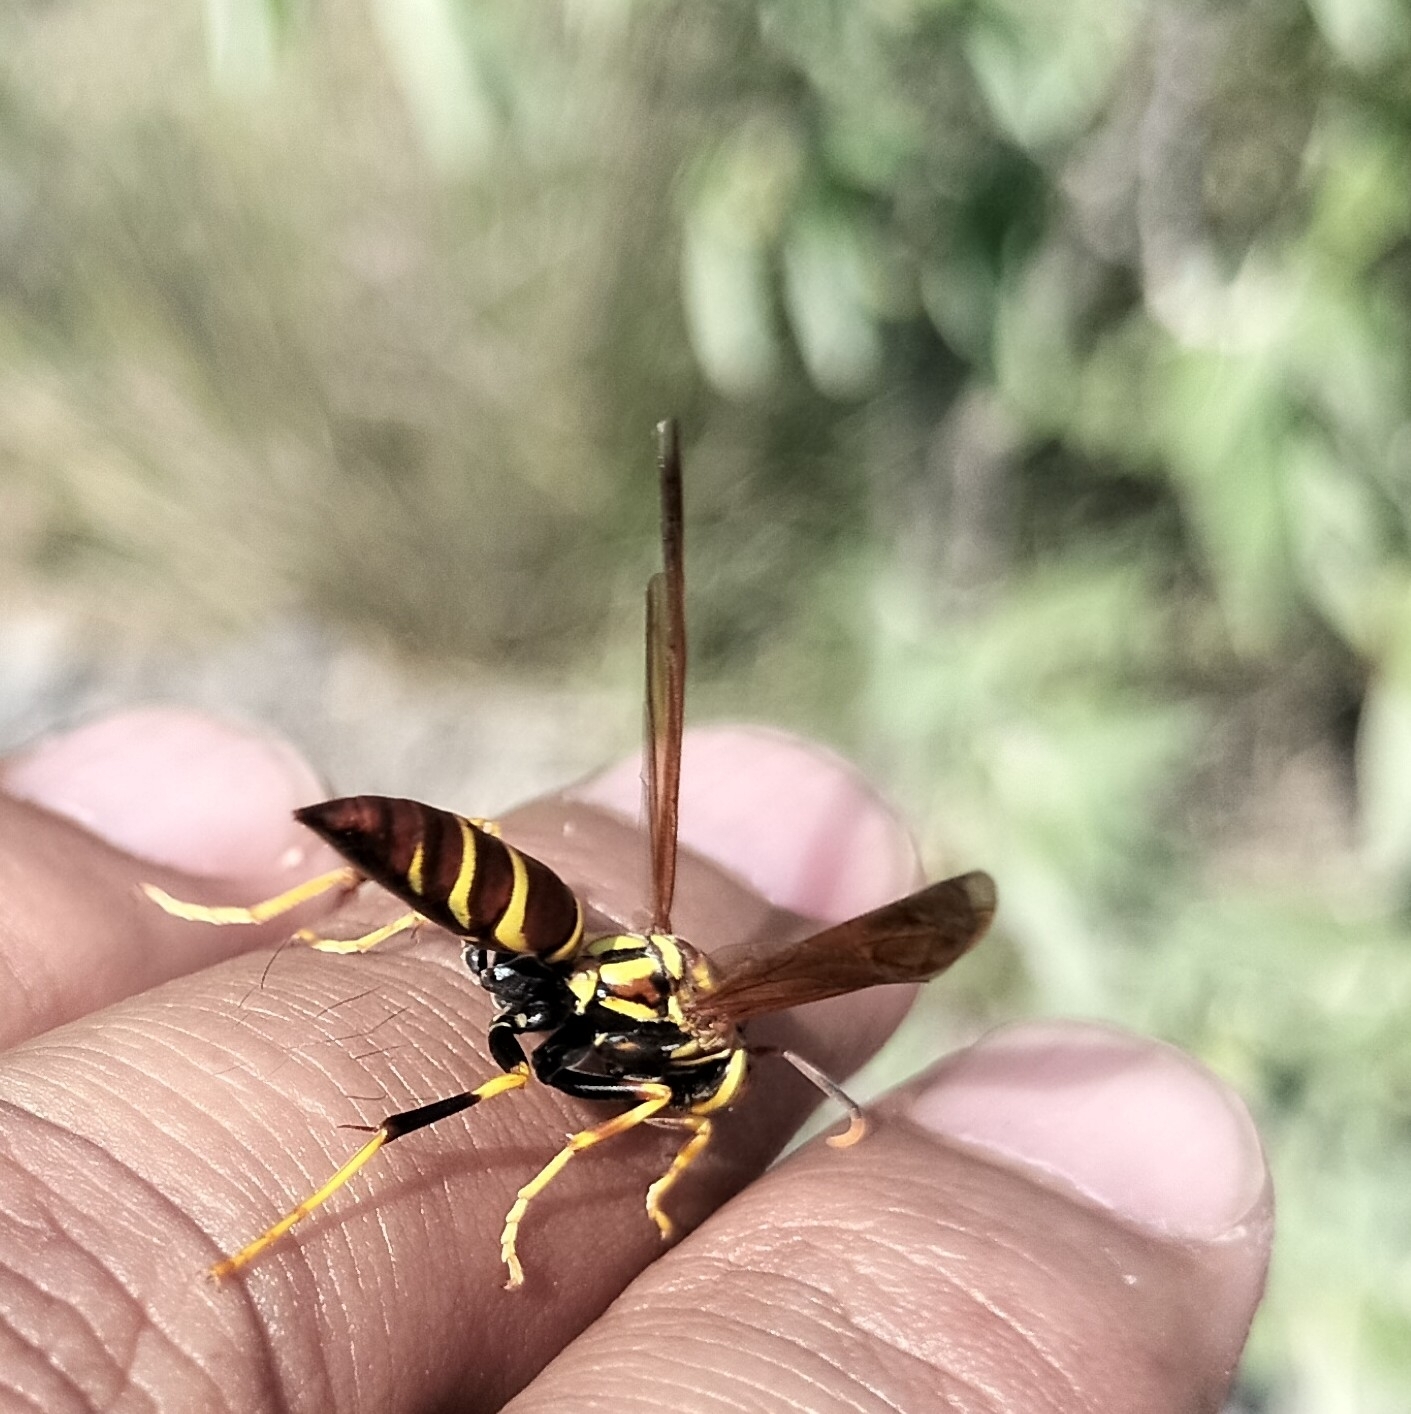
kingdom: Animalia
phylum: Arthropoda
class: Insecta
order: Hymenoptera
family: Eumenidae
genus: Polistes
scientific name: Polistes instabilis
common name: Unstable paper wasp
